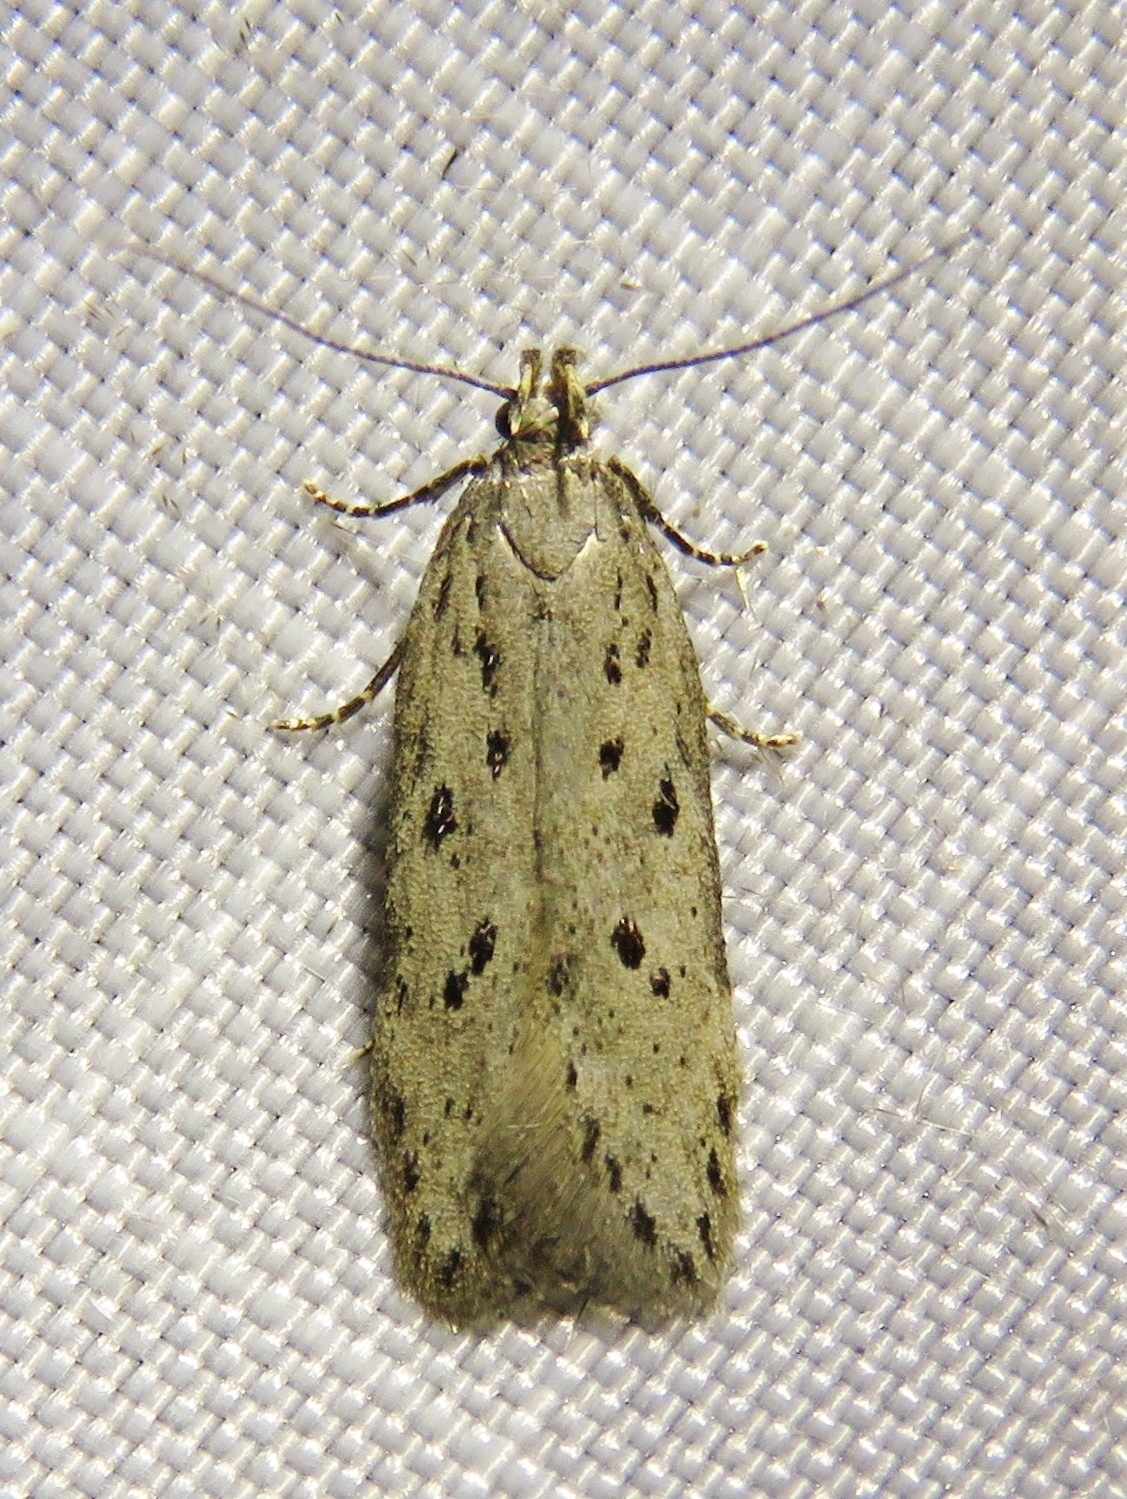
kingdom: Animalia
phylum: Arthropoda
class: Insecta
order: Lepidoptera
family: Gelechiidae
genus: Athrips
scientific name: Athrips mouffetella
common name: Dotted grey groundling
